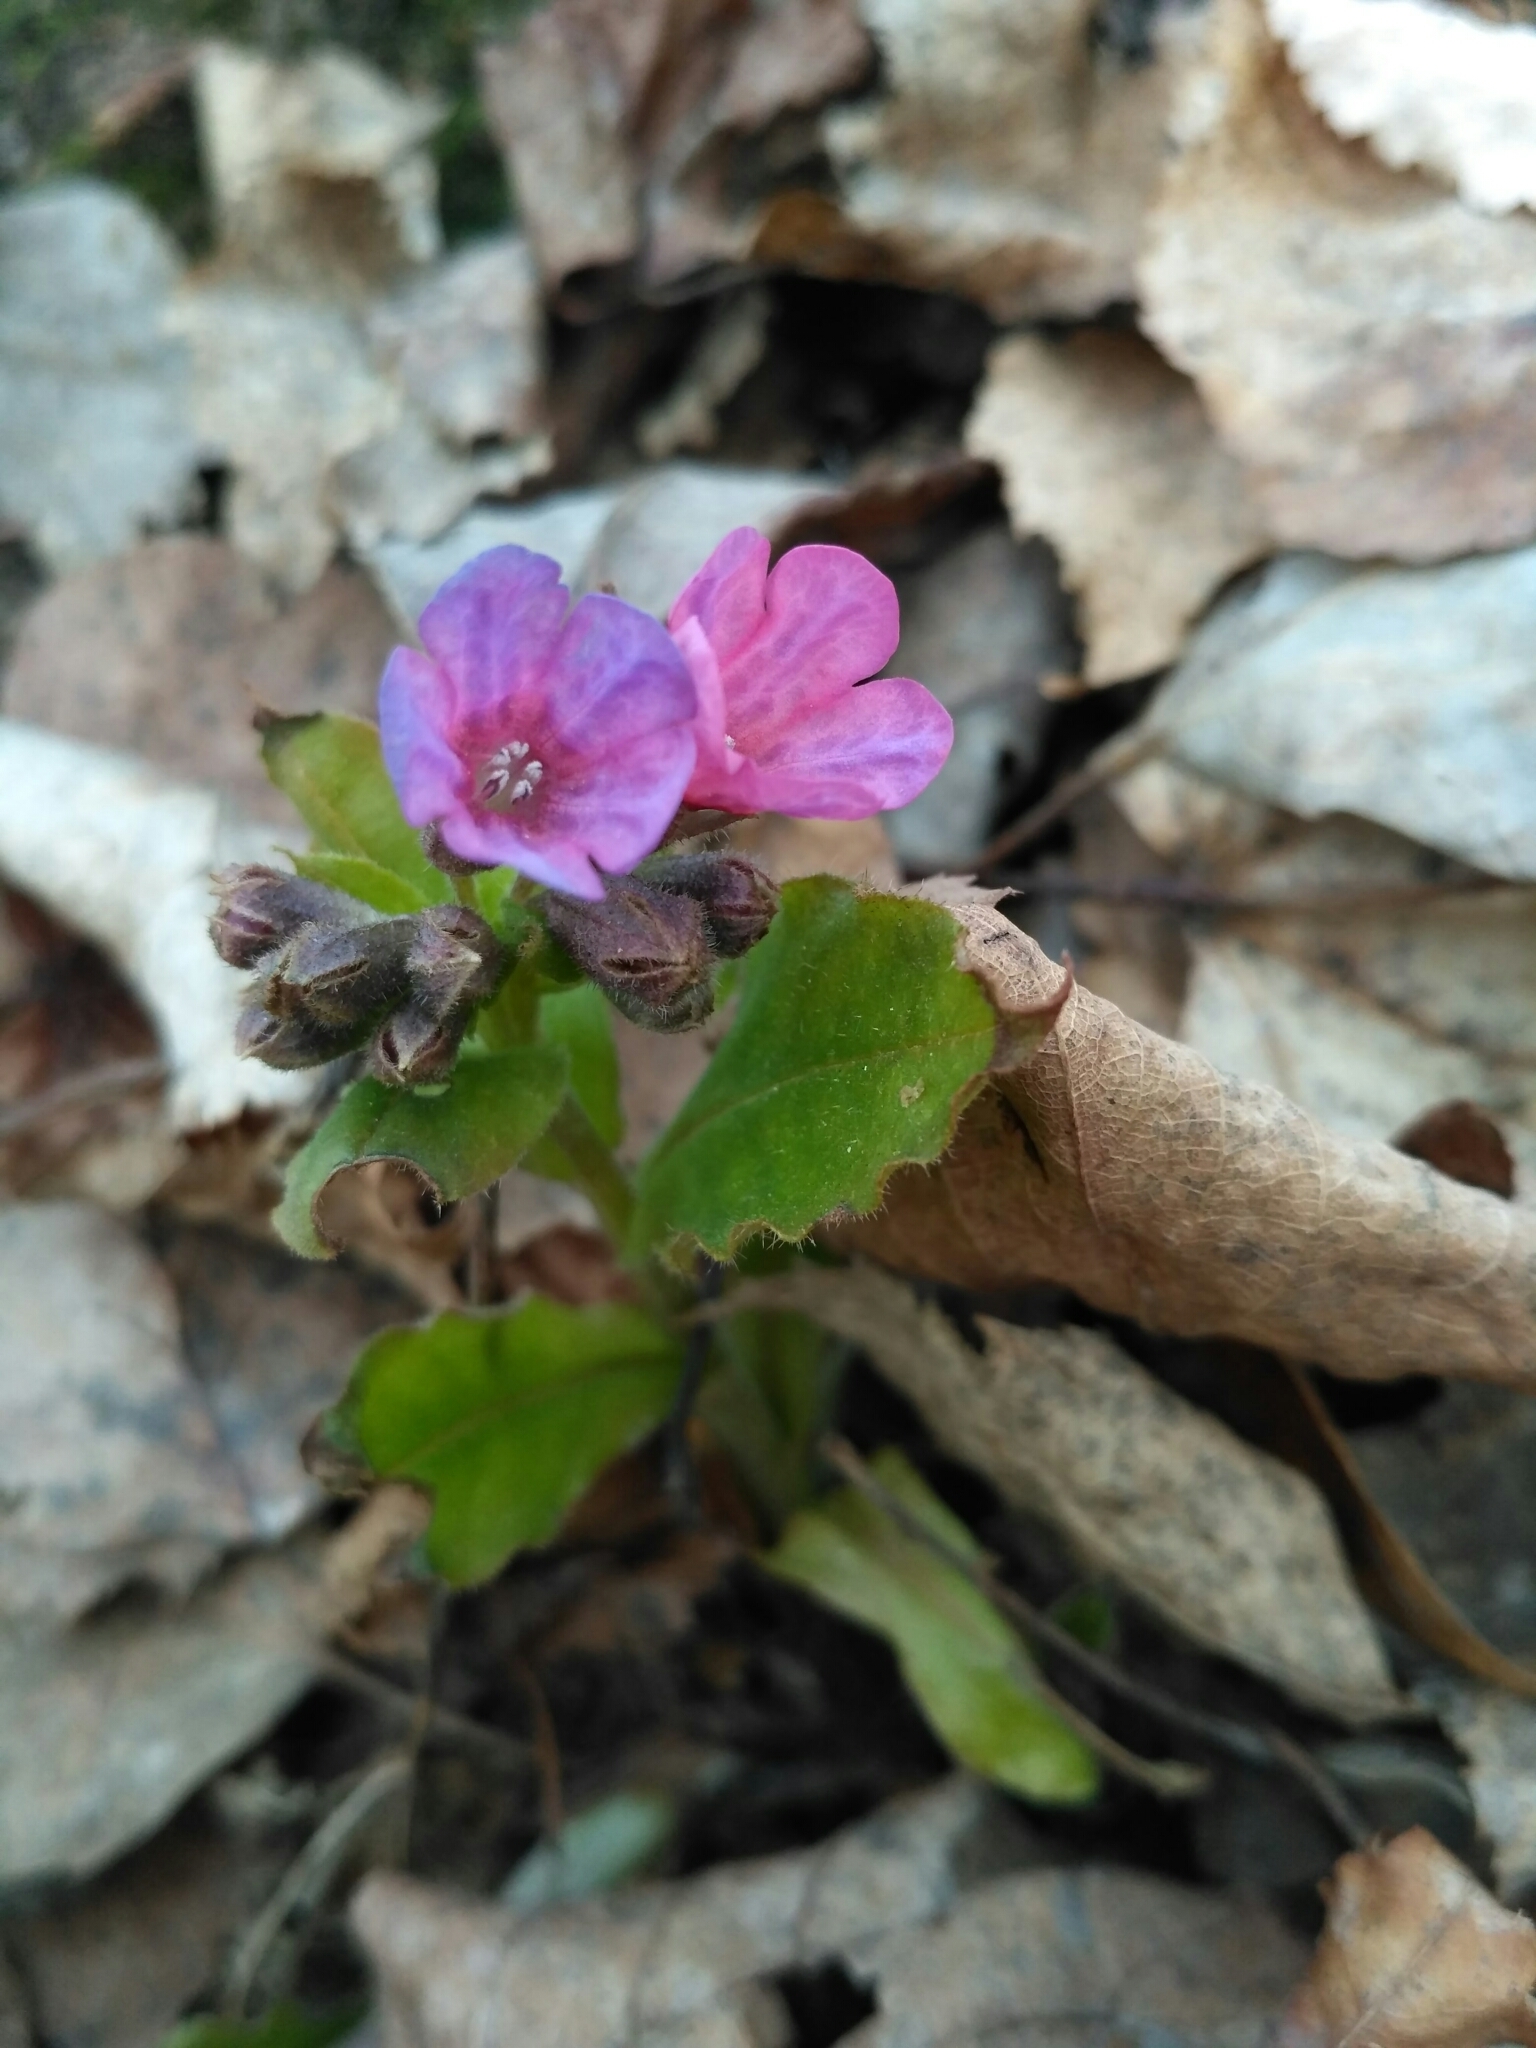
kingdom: Plantae
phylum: Tracheophyta
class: Magnoliopsida
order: Boraginales
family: Boraginaceae
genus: Pulmonaria
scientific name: Pulmonaria obscura
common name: Suffolk lungwort
